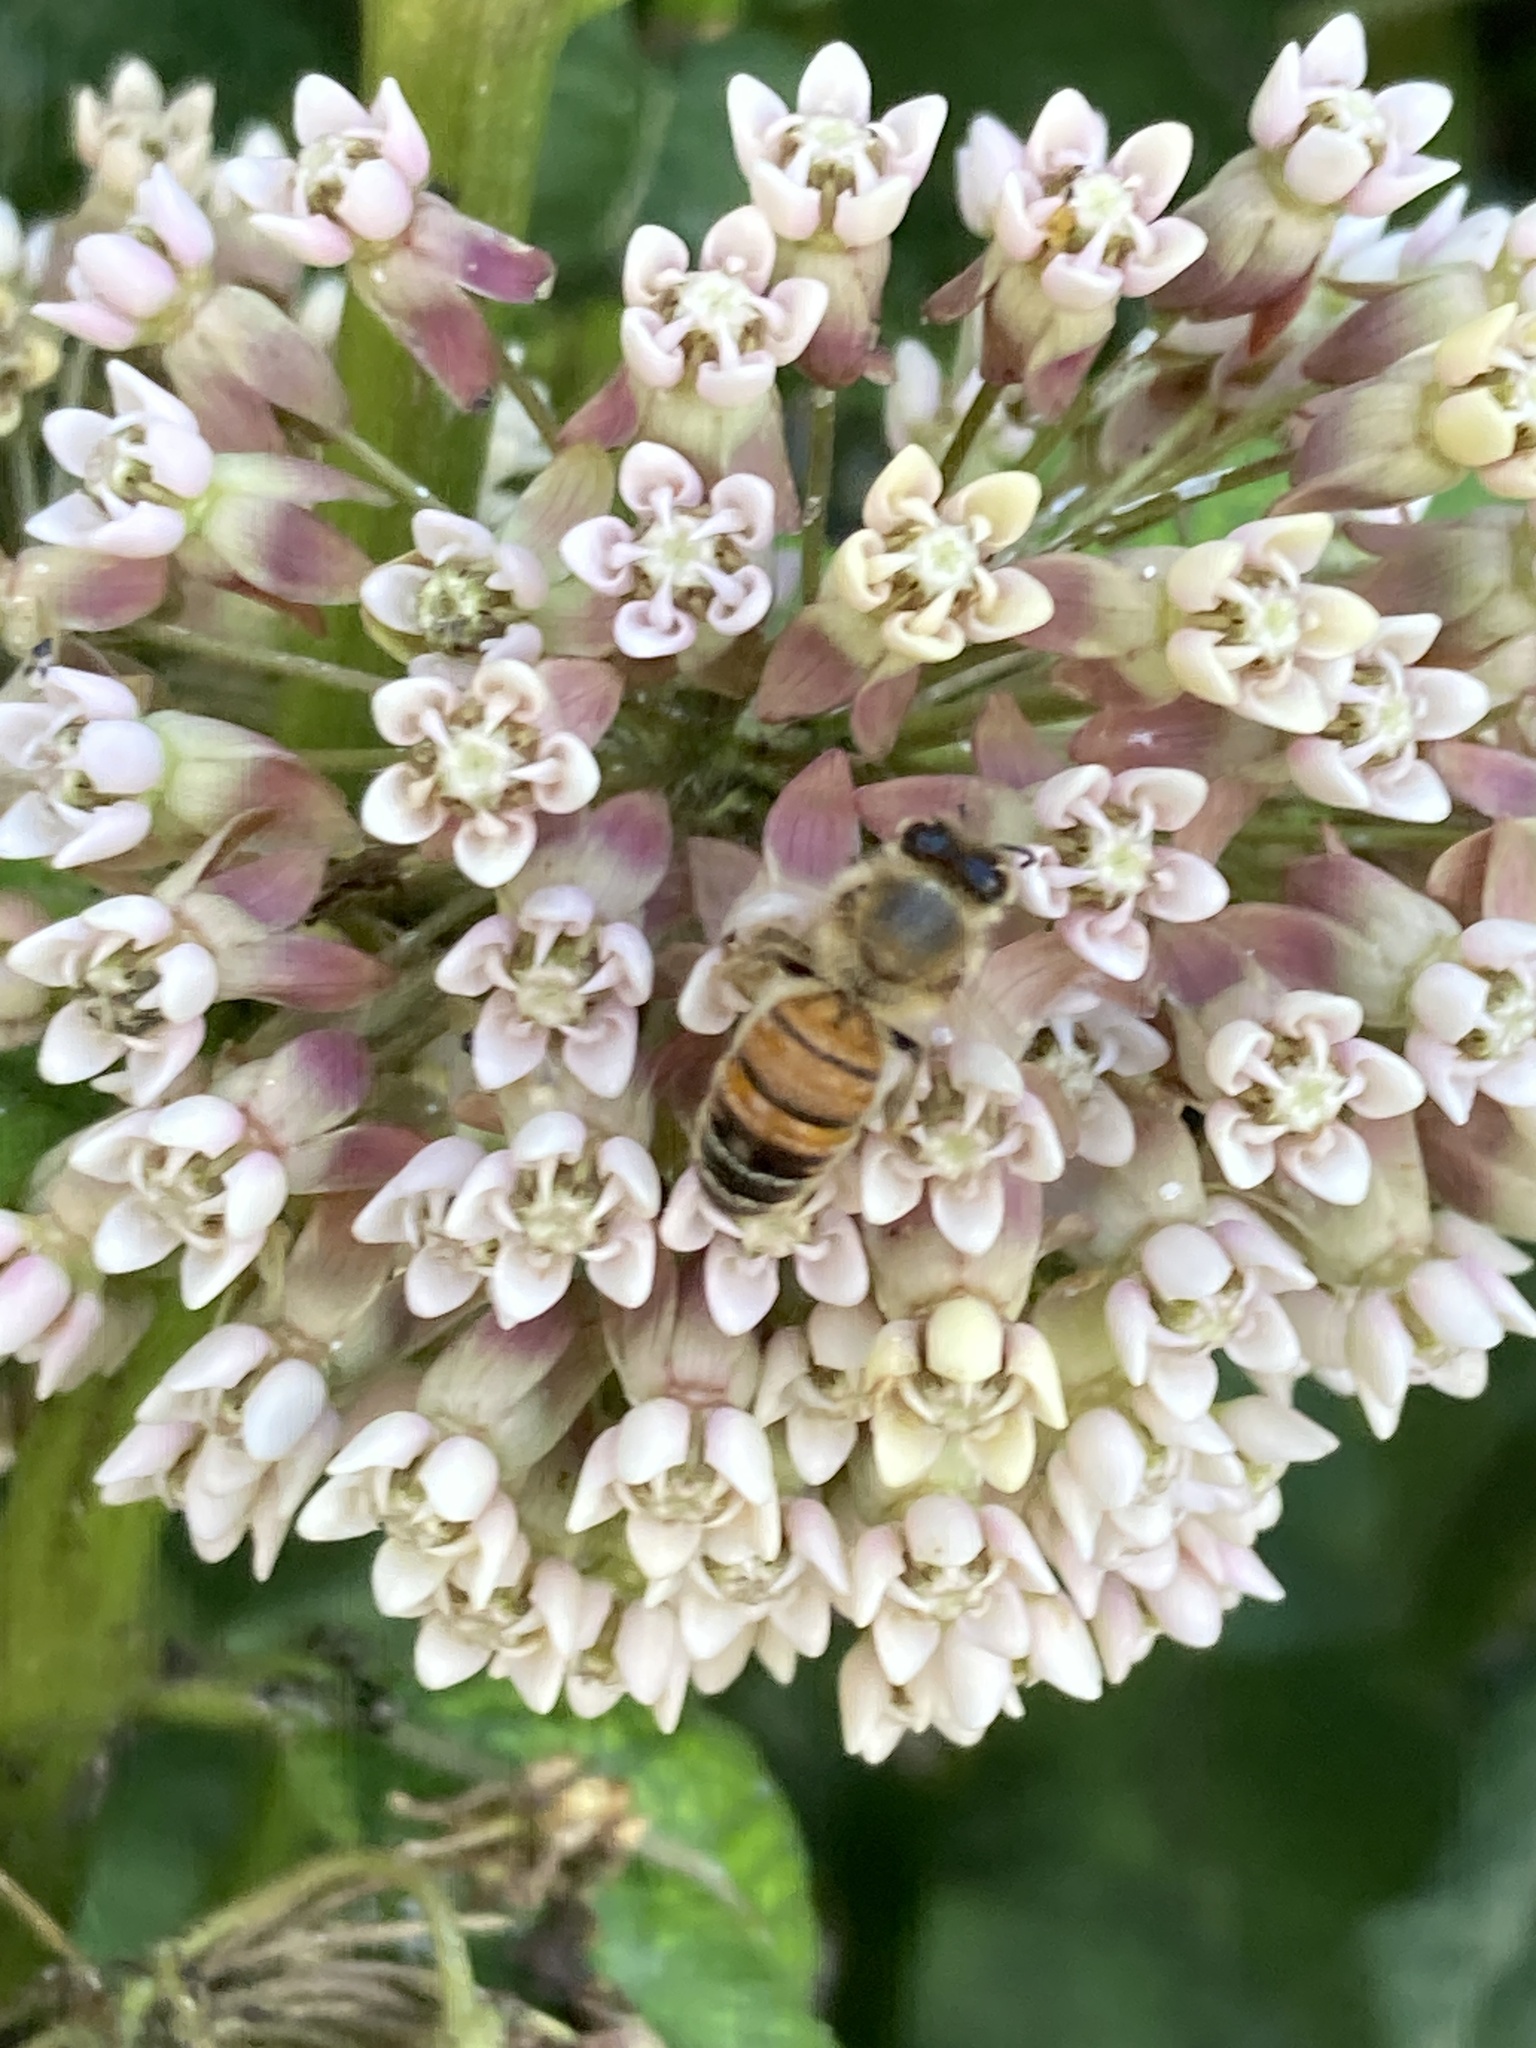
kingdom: Animalia
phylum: Arthropoda
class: Insecta
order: Hymenoptera
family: Apidae
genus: Apis
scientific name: Apis mellifera
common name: Honey bee
